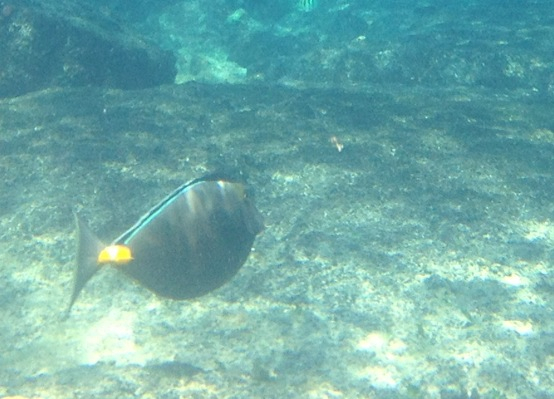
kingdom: Animalia
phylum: Chordata
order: Perciformes
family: Acanthuridae
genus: Naso
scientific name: Naso lituratus
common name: Orangespine unicornfish
